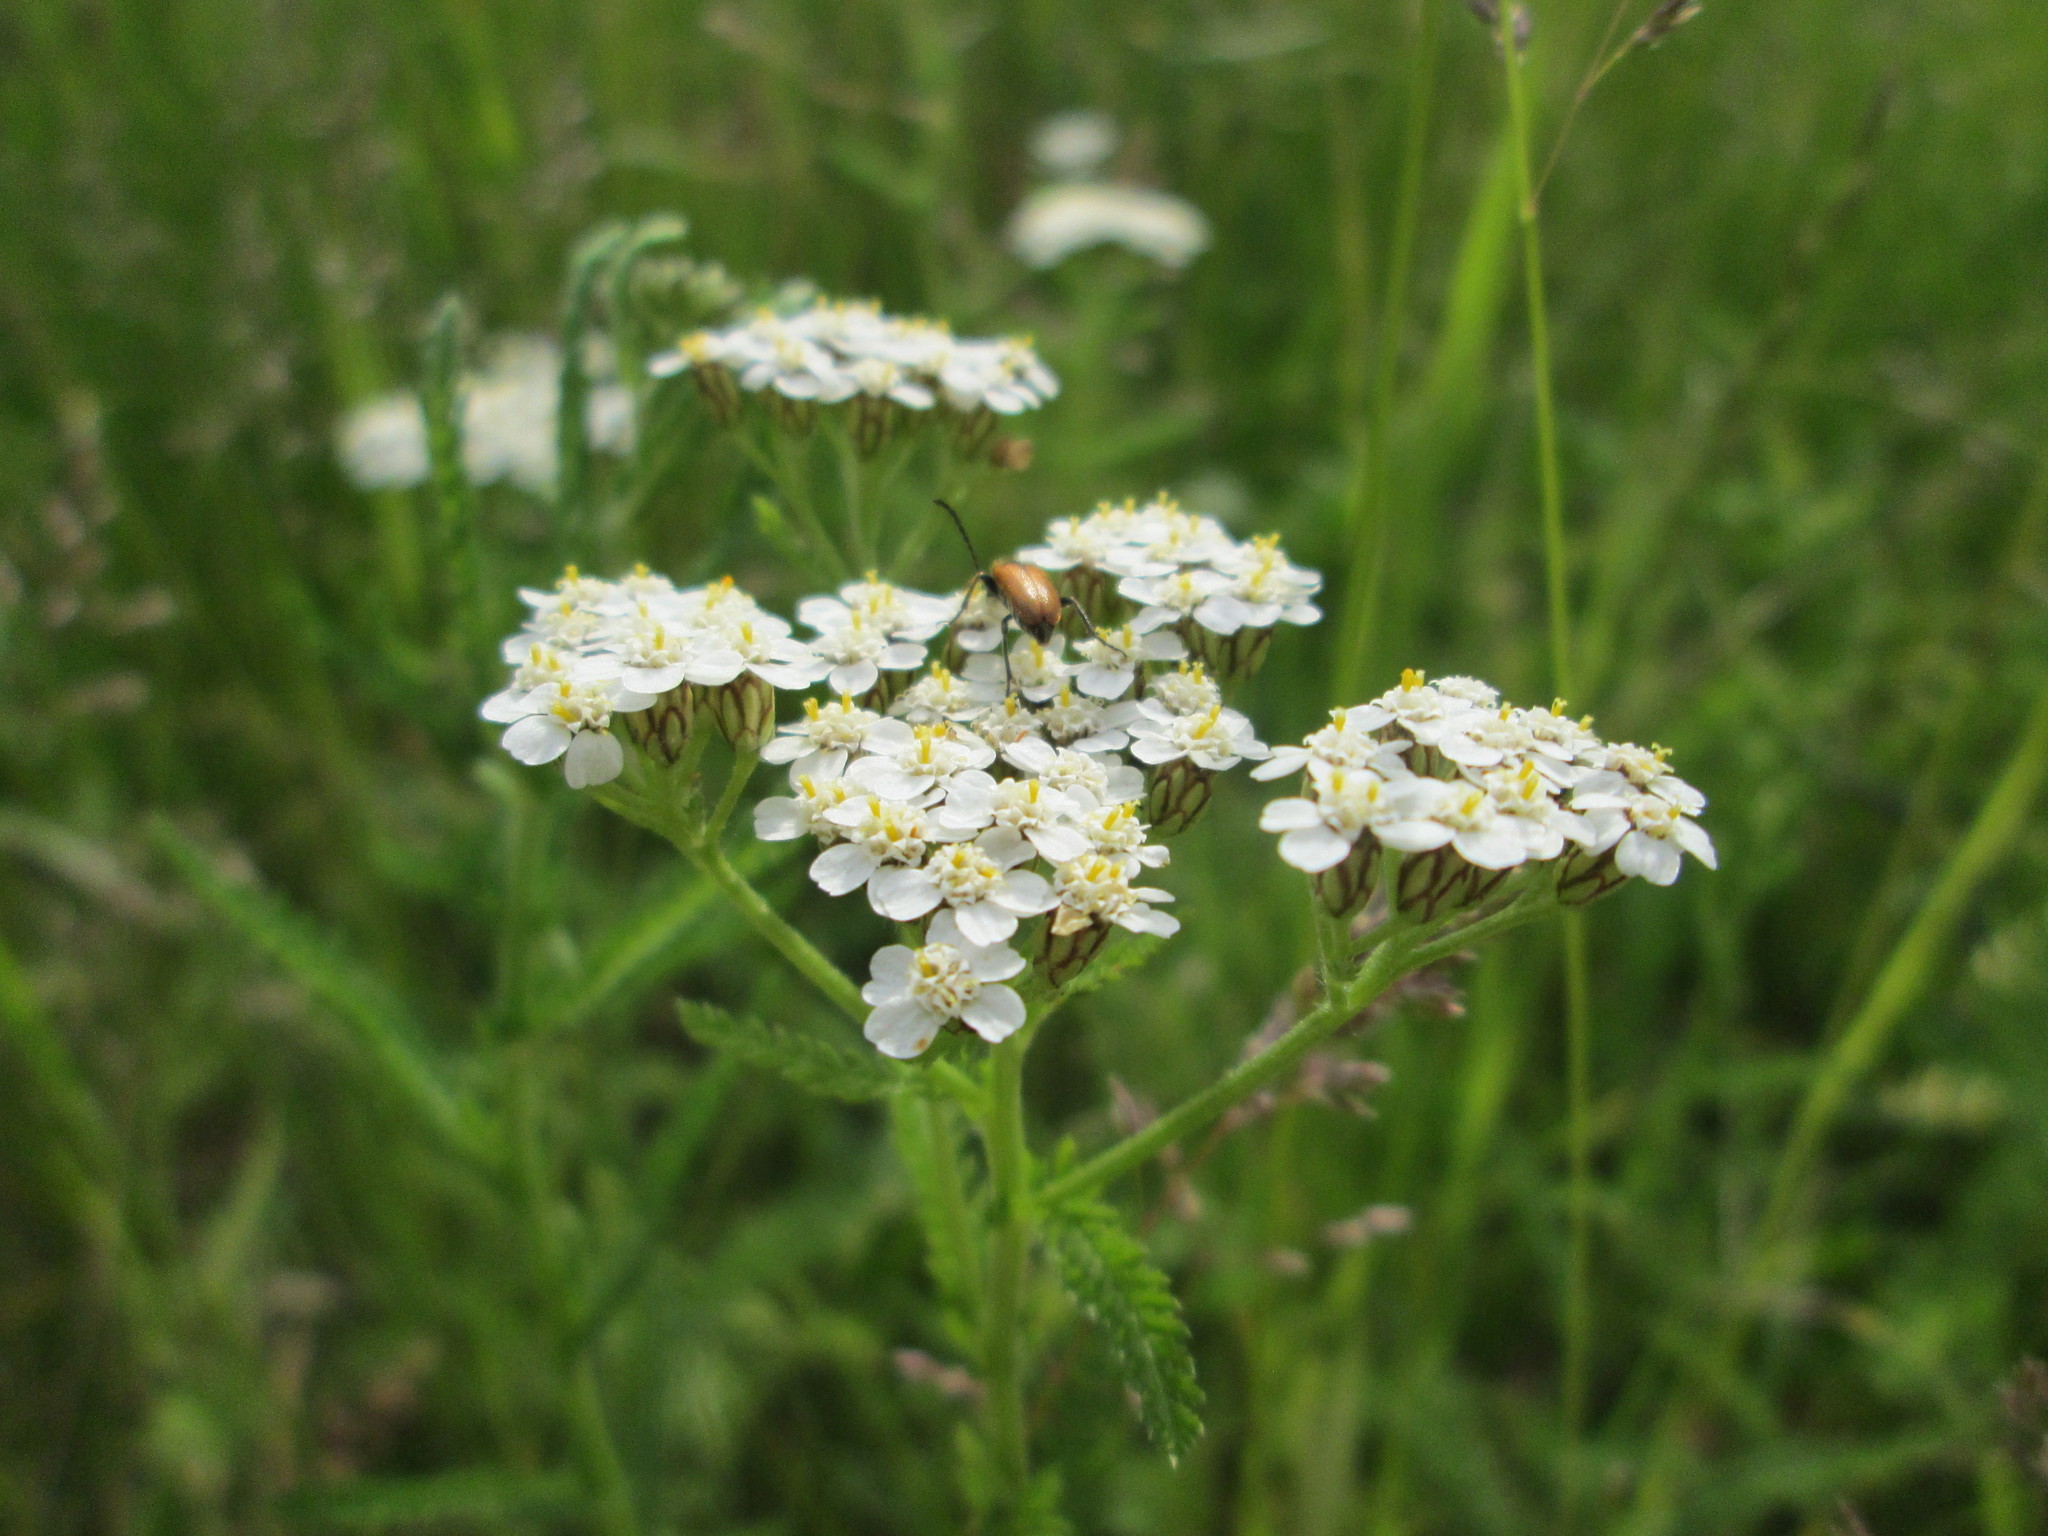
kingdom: Plantae
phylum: Tracheophyta
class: Magnoliopsida
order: Asterales
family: Asteraceae
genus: Achillea
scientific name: Achillea millefolium
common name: Yarrow
